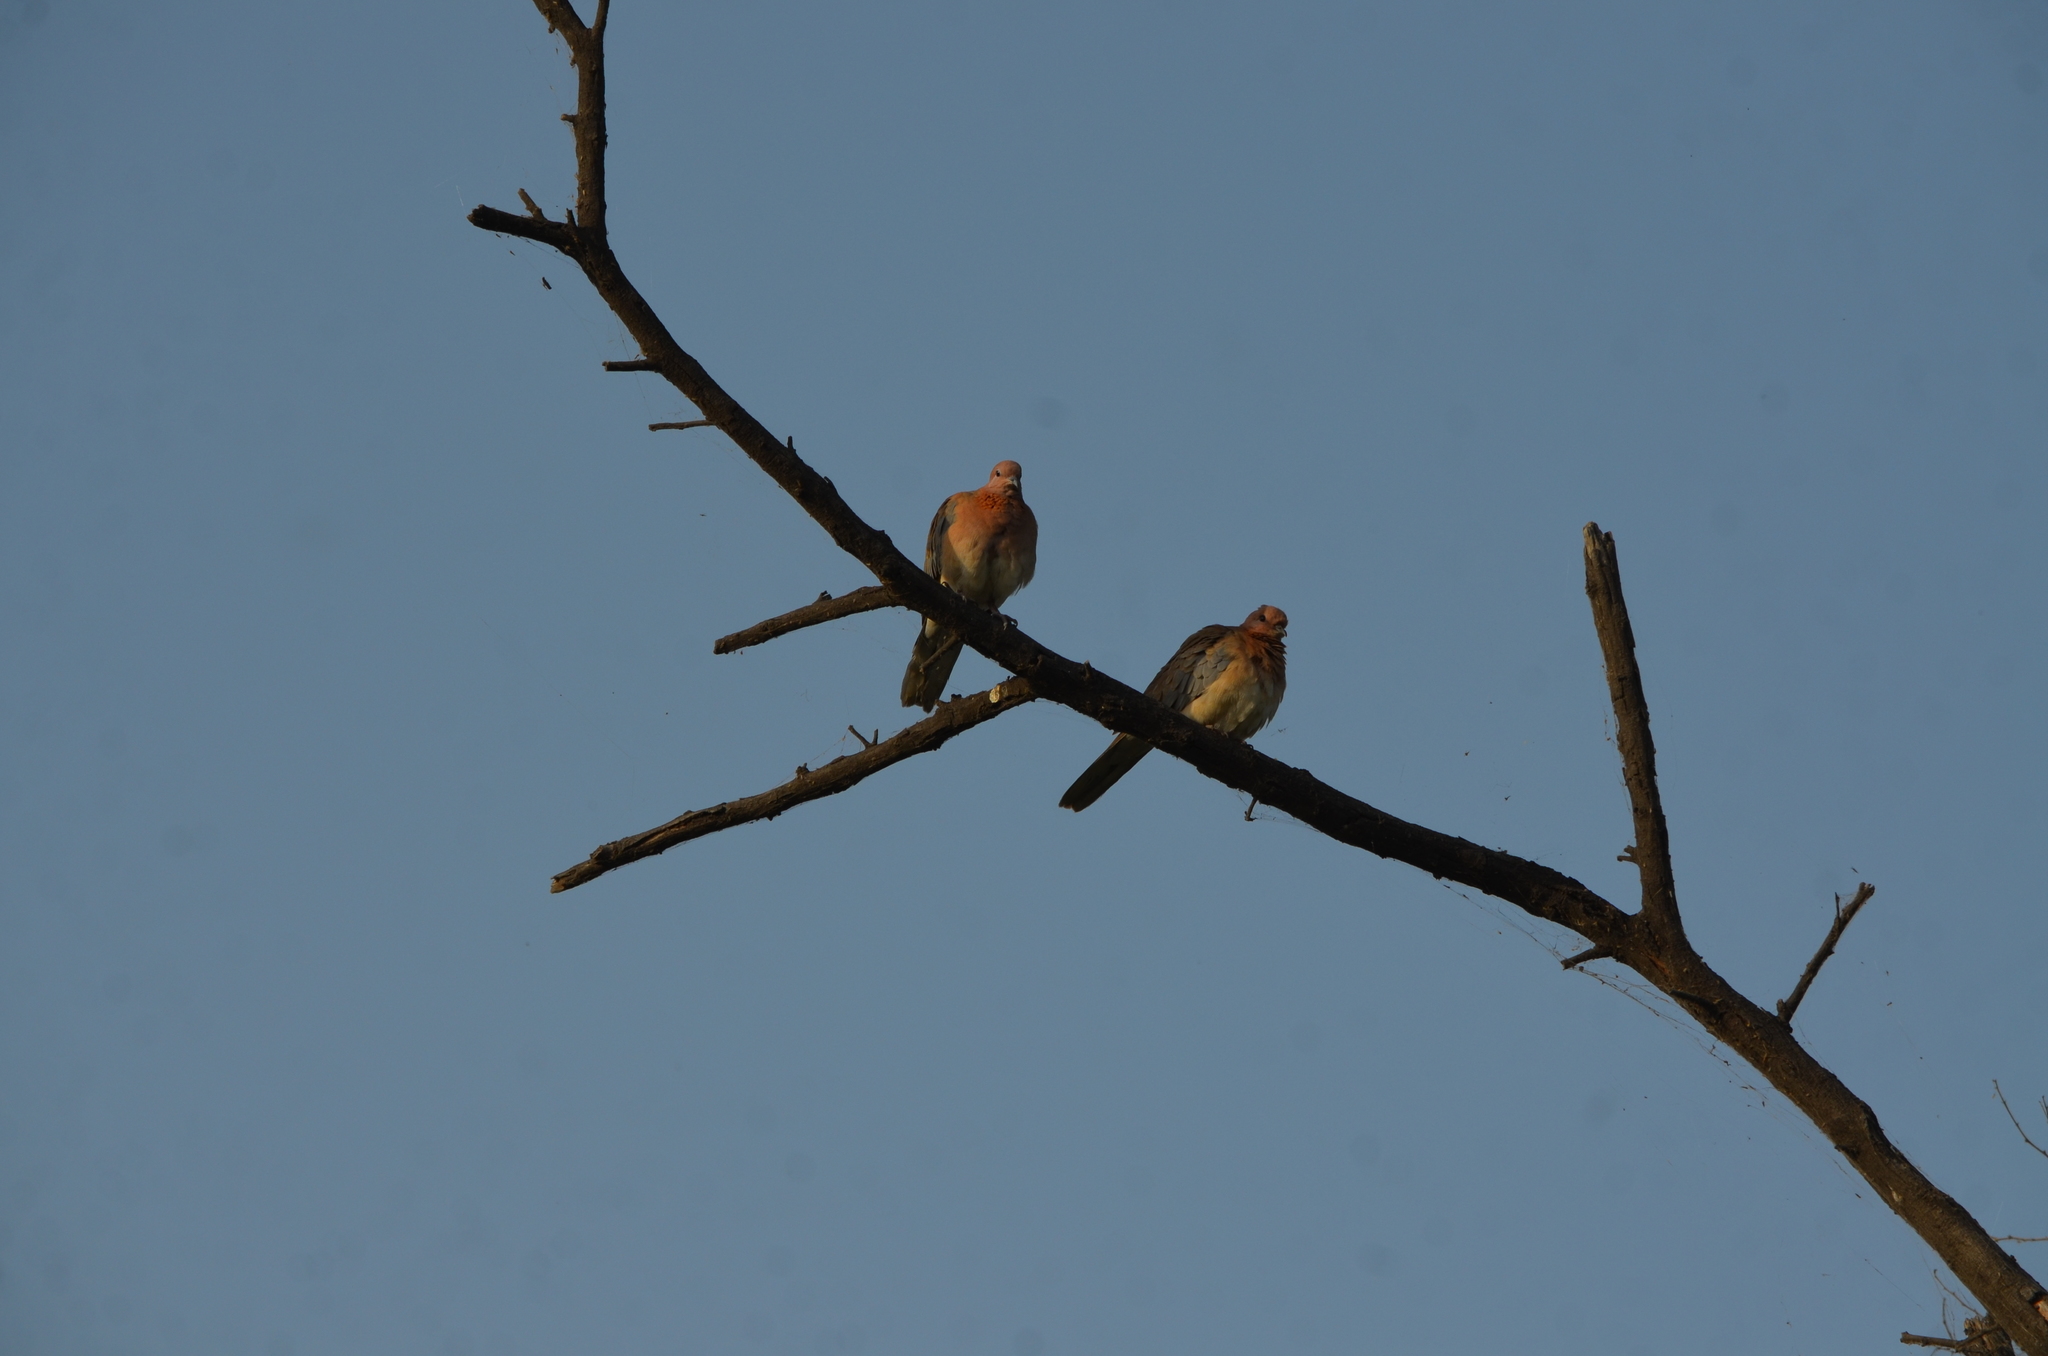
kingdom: Animalia
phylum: Chordata
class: Aves
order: Columbiformes
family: Columbidae
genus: Spilopelia
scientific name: Spilopelia senegalensis
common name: Laughing dove
